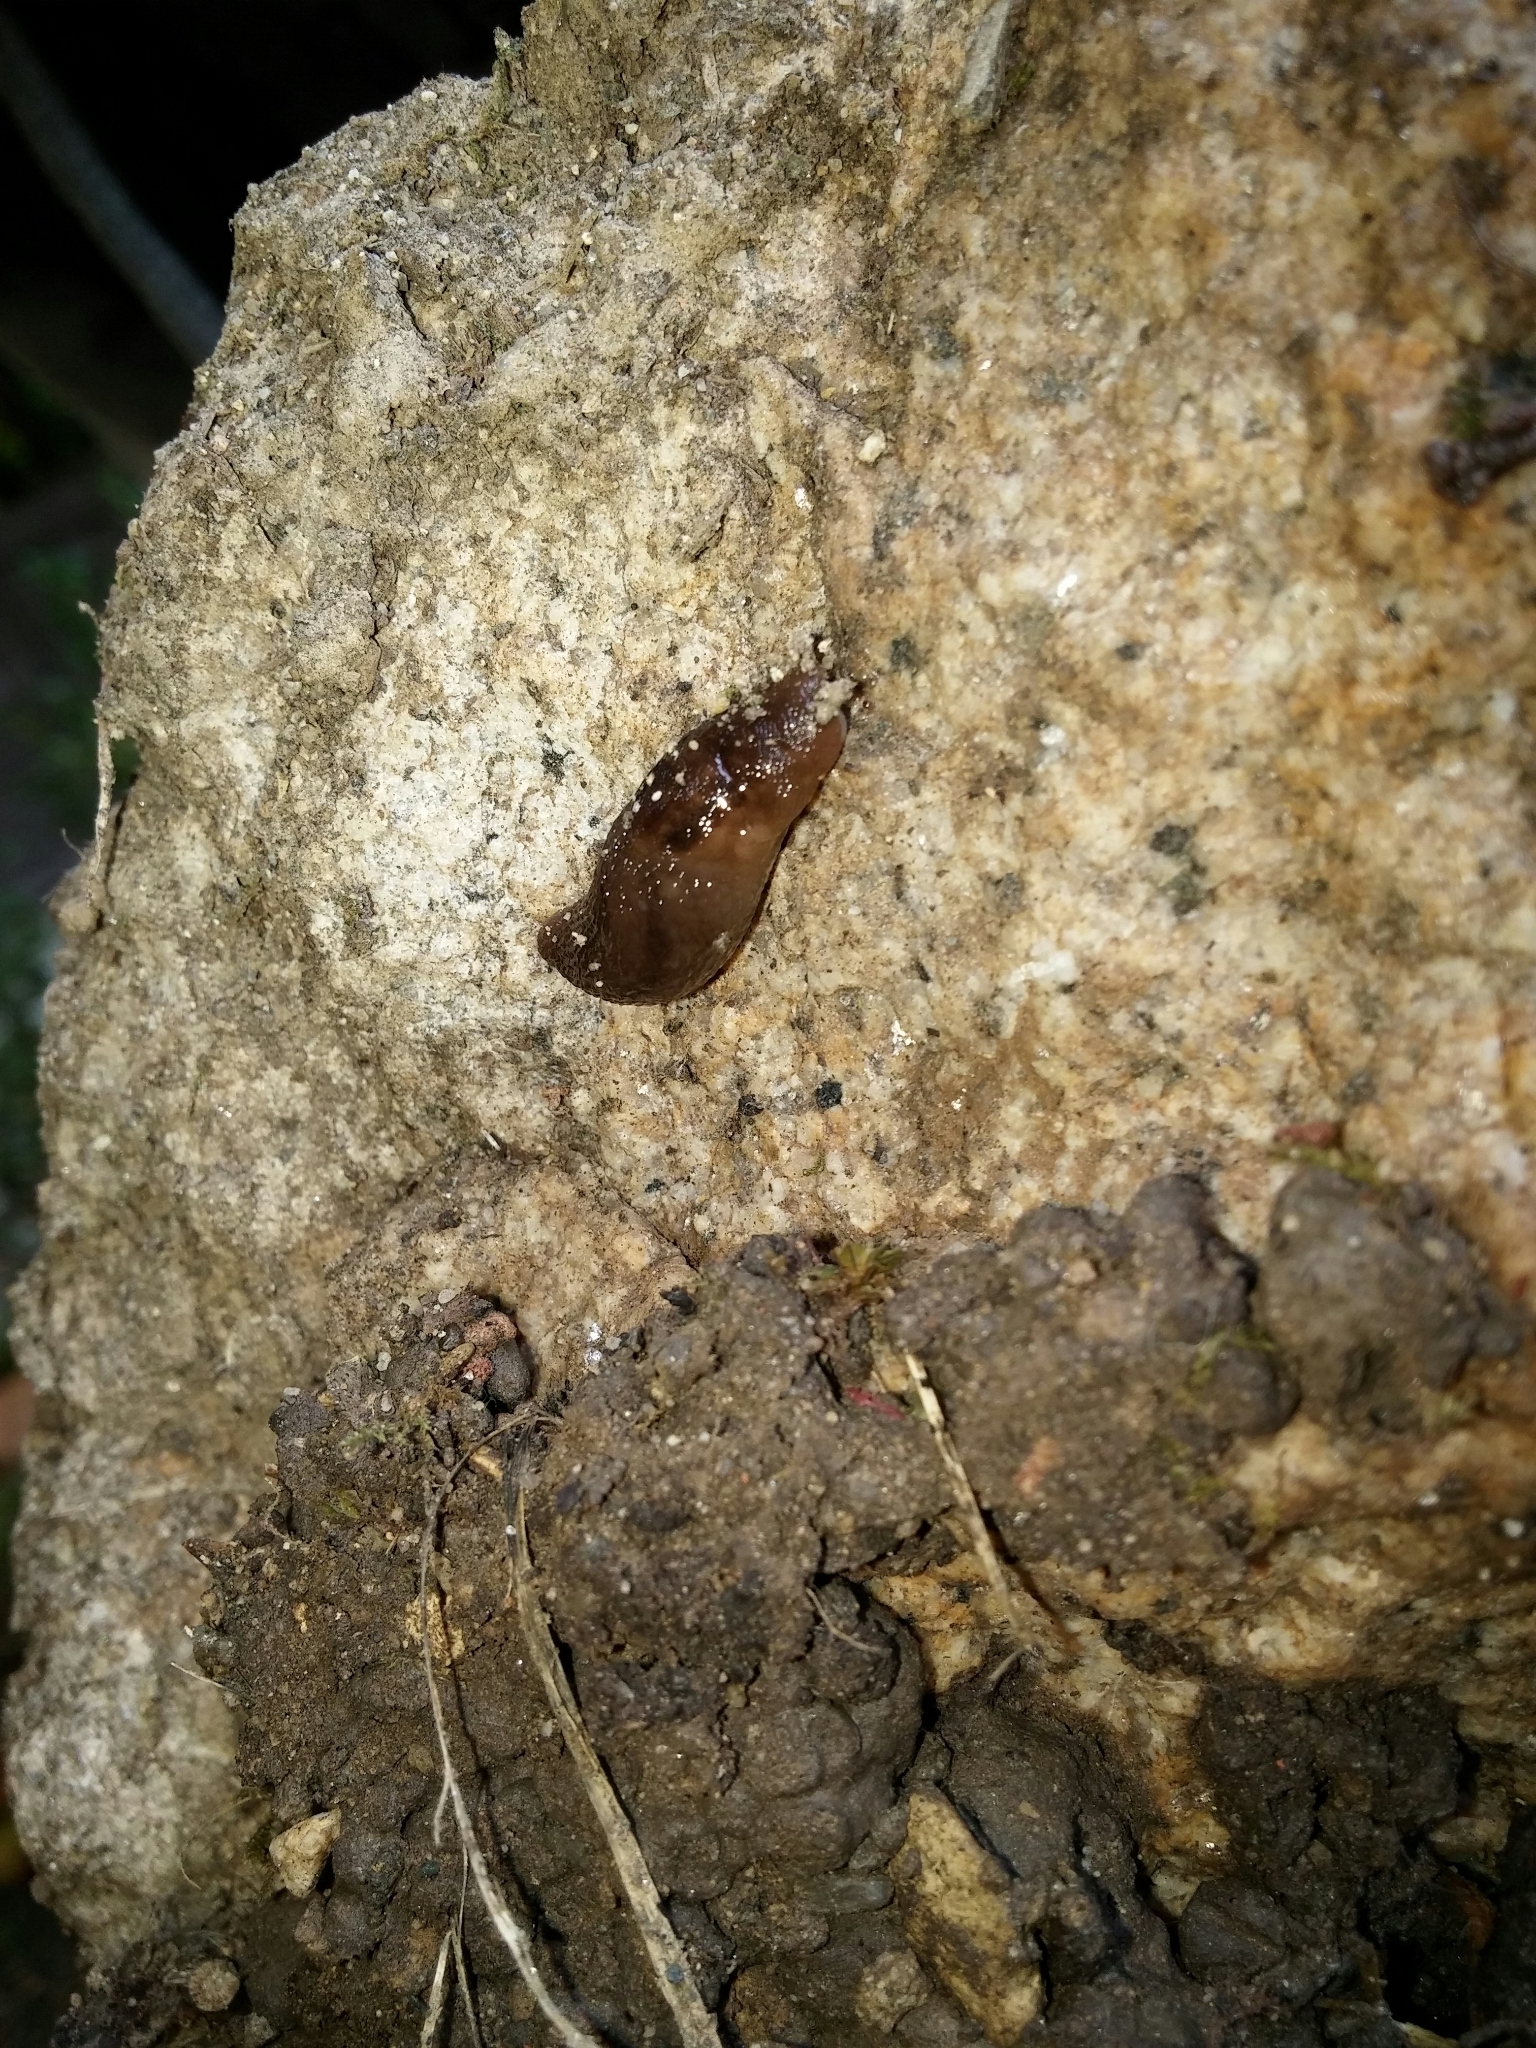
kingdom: Animalia
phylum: Mollusca
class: Gastropoda
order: Stylommatophora
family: Limacidae
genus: Ambigolimax
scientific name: Ambigolimax valentianus
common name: Greenhouse slug
